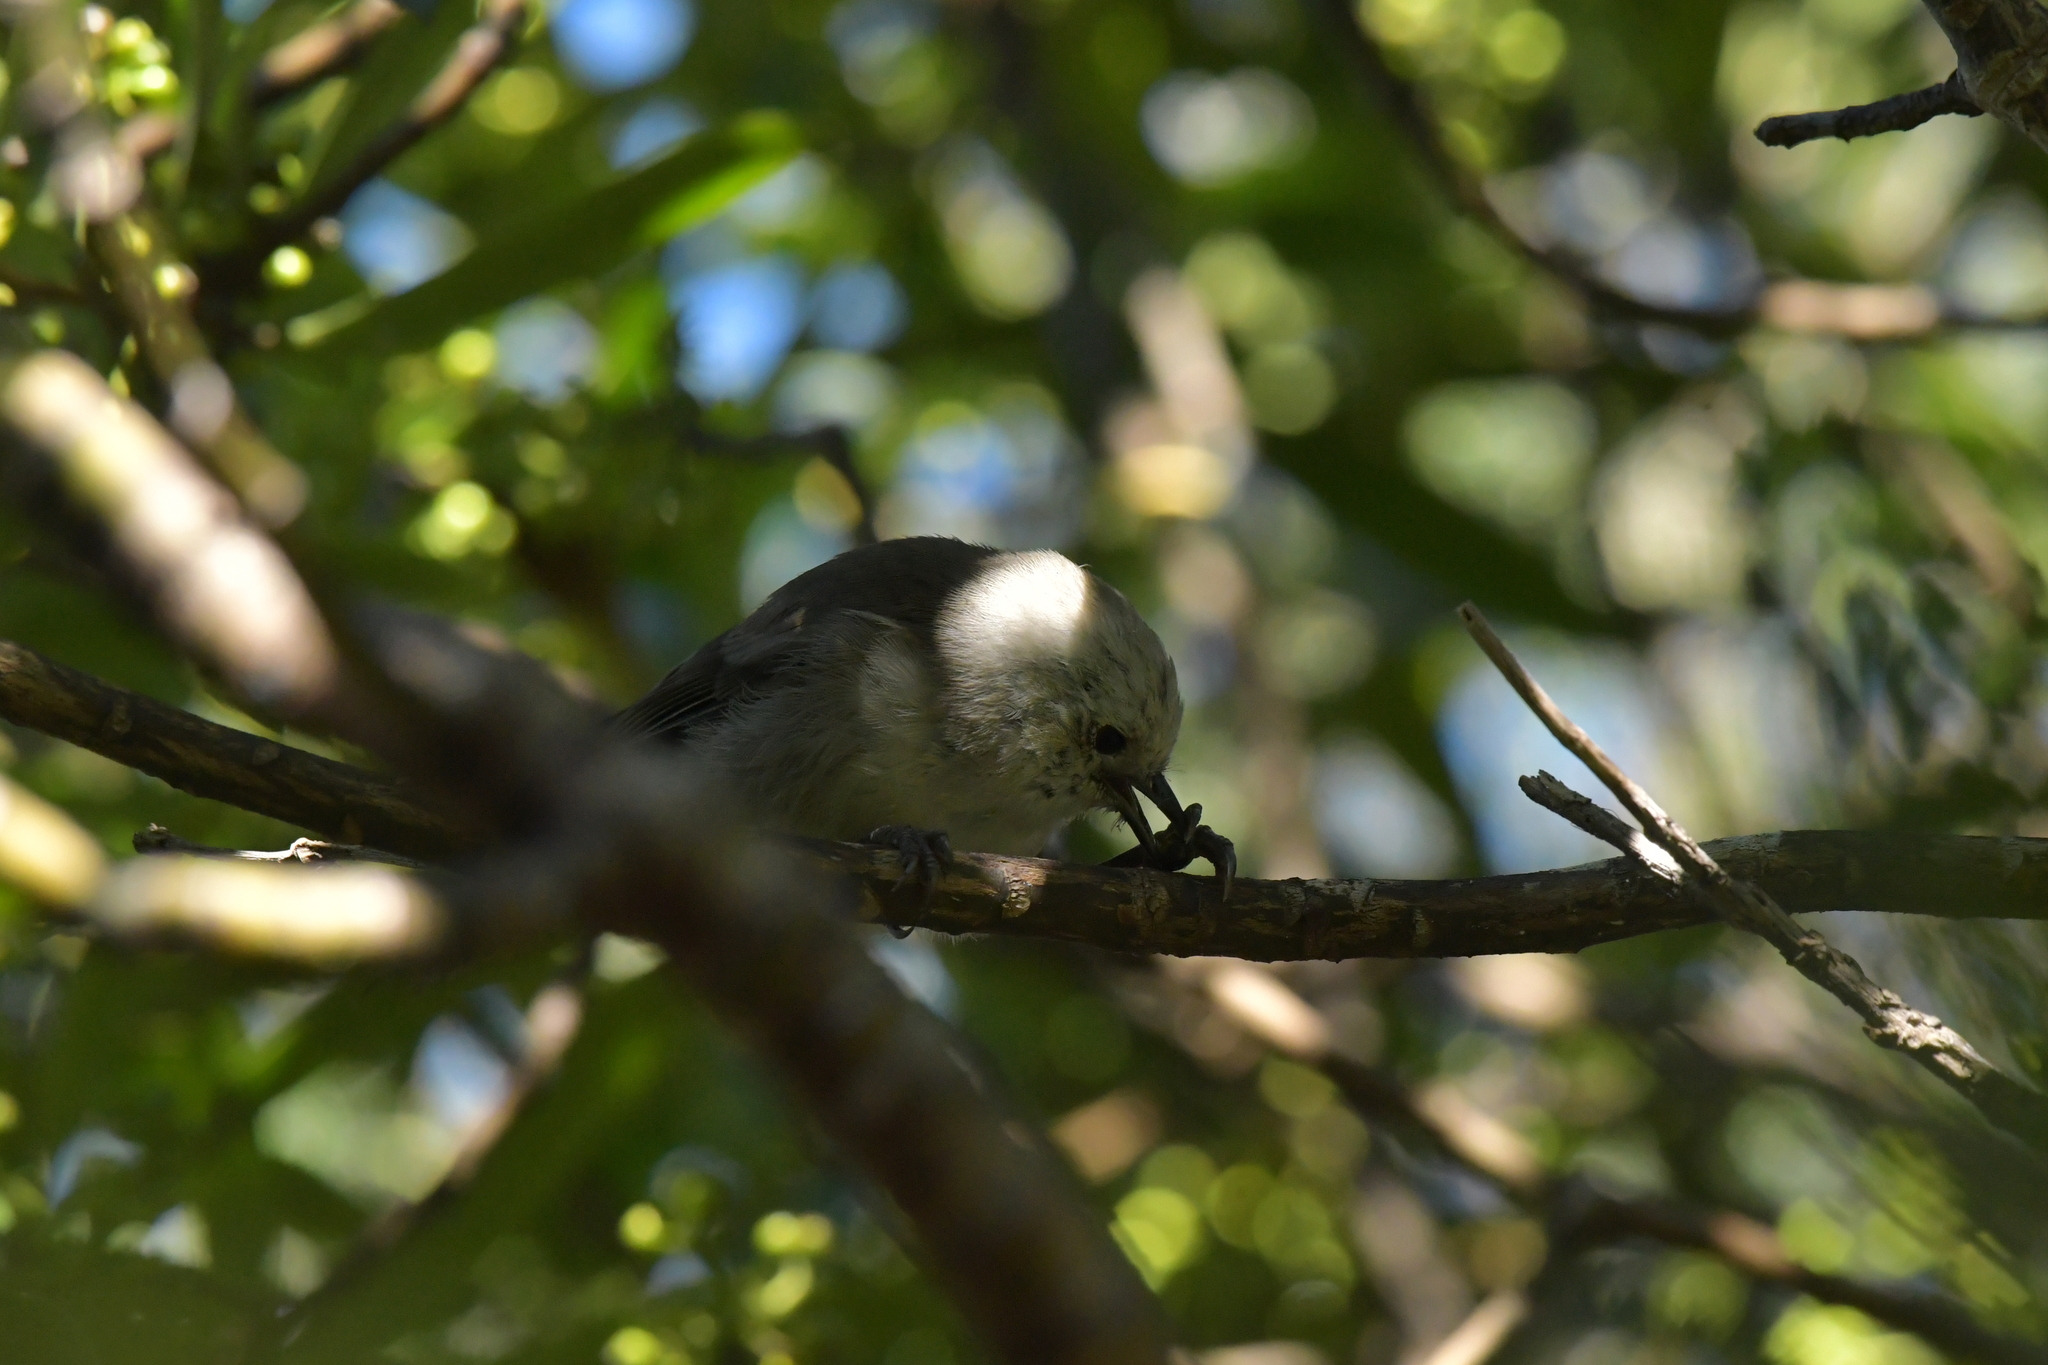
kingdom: Animalia
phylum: Chordata
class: Aves
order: Passeriformes
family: Acanthizidae
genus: Mohoua
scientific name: Mohoua albicilla
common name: Whitehead
